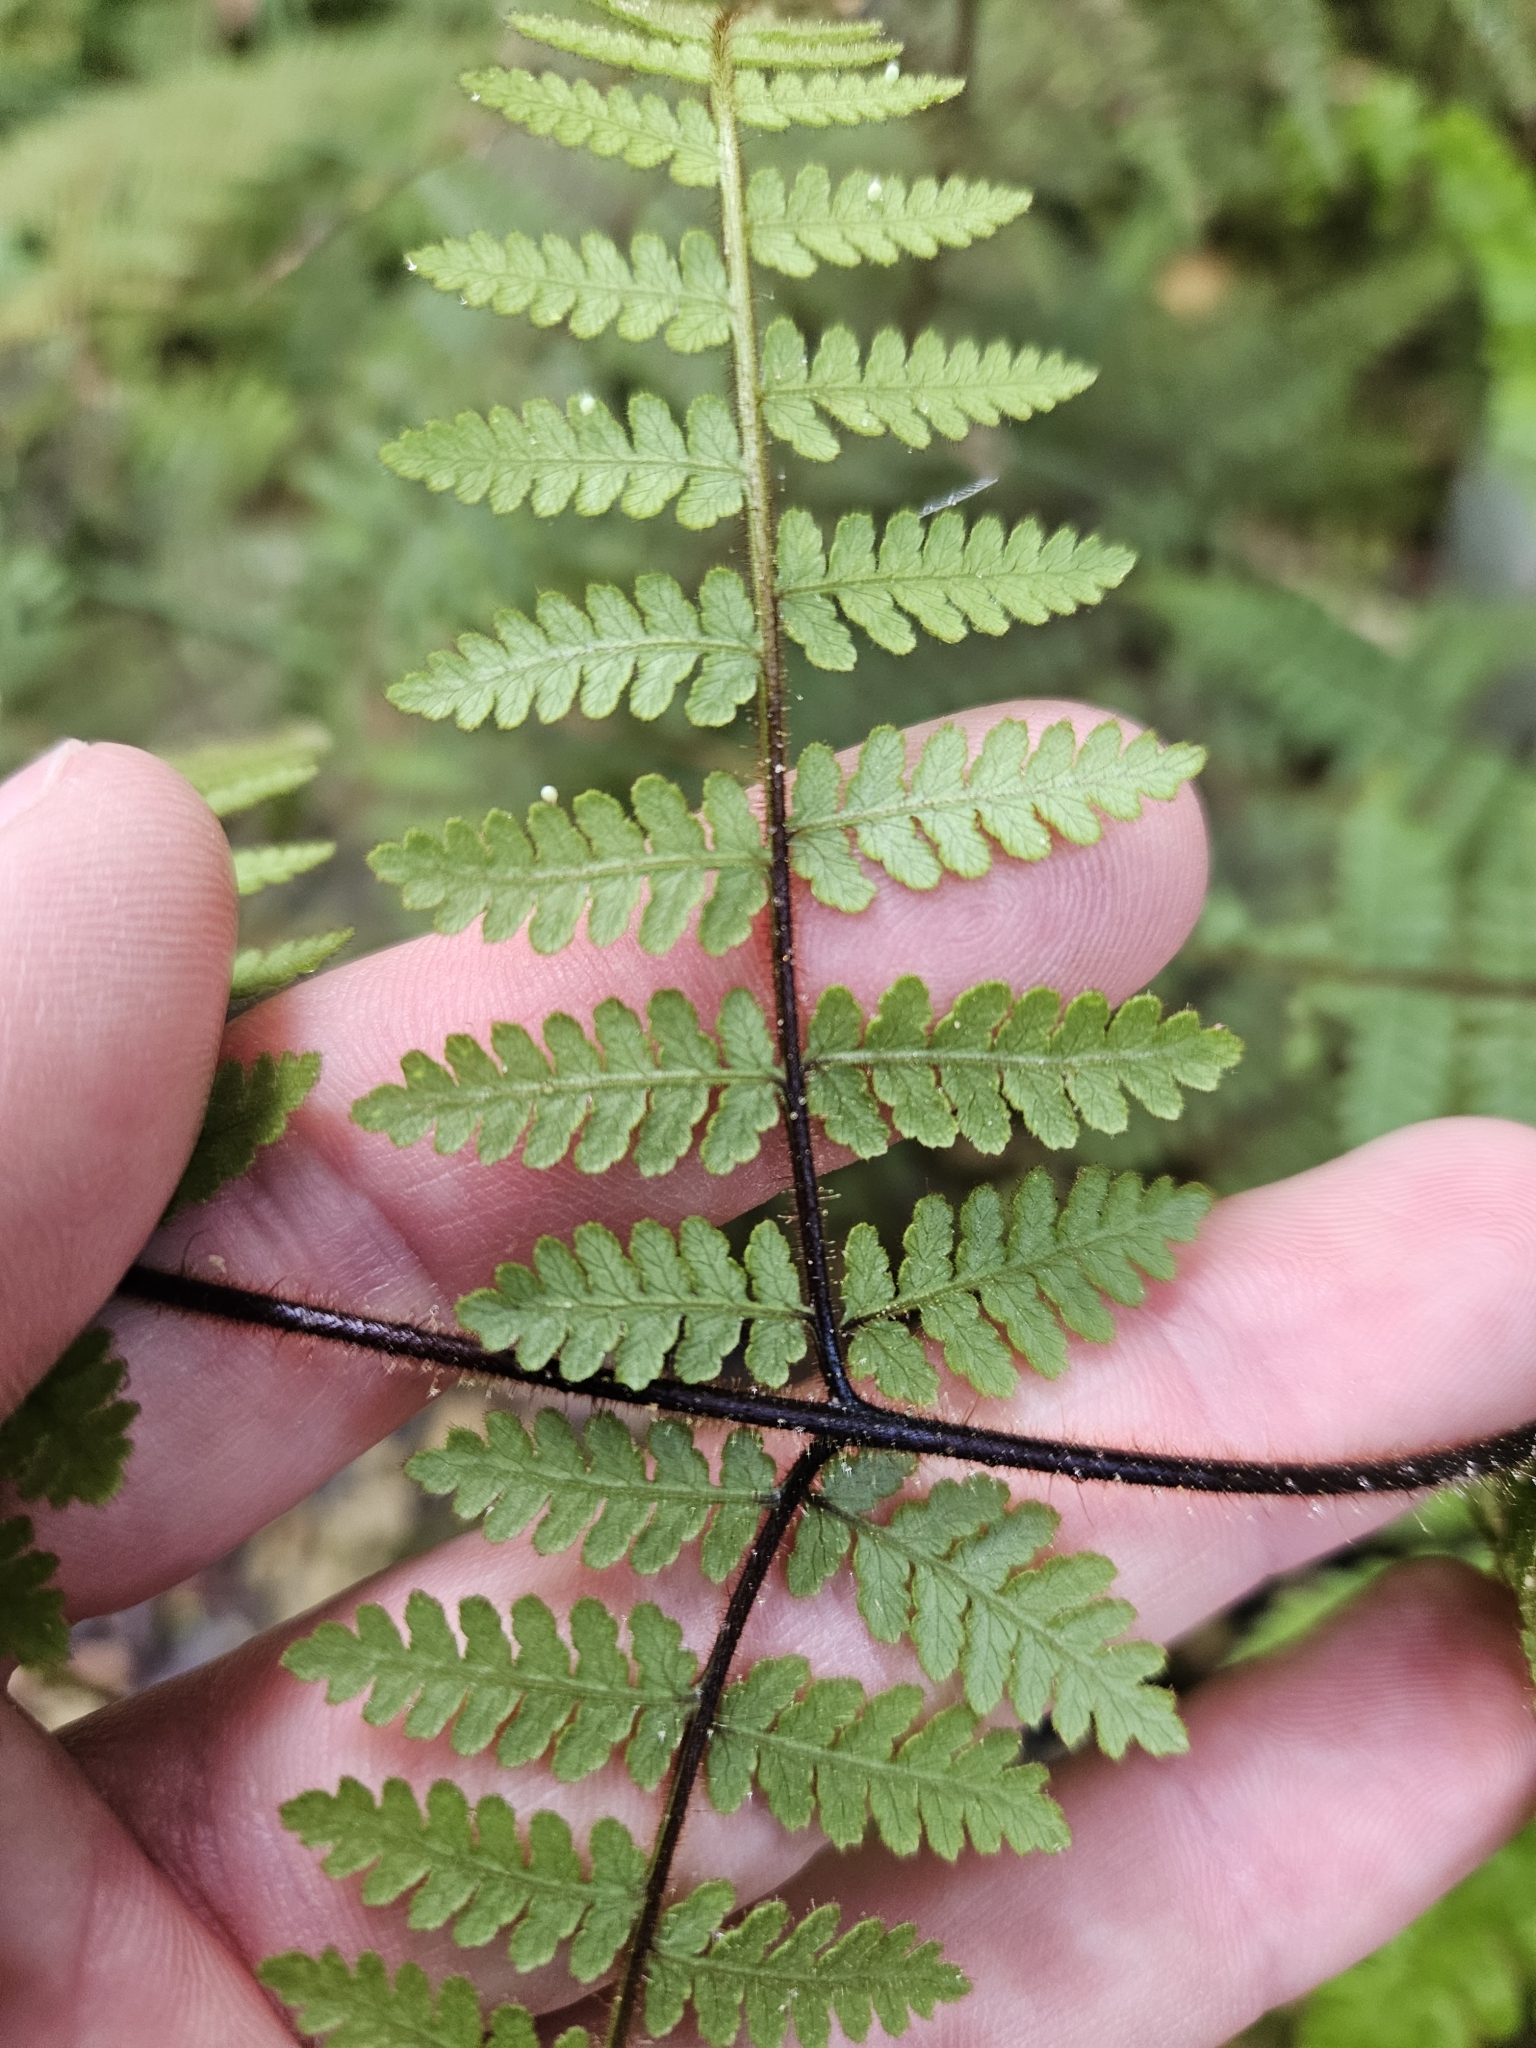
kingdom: Plantae
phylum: Tracheophyta
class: Polypodiopsida
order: Polypodiales
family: Dennstaedtiaceae
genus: Hypolepis
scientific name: Hypolepis rugosula
